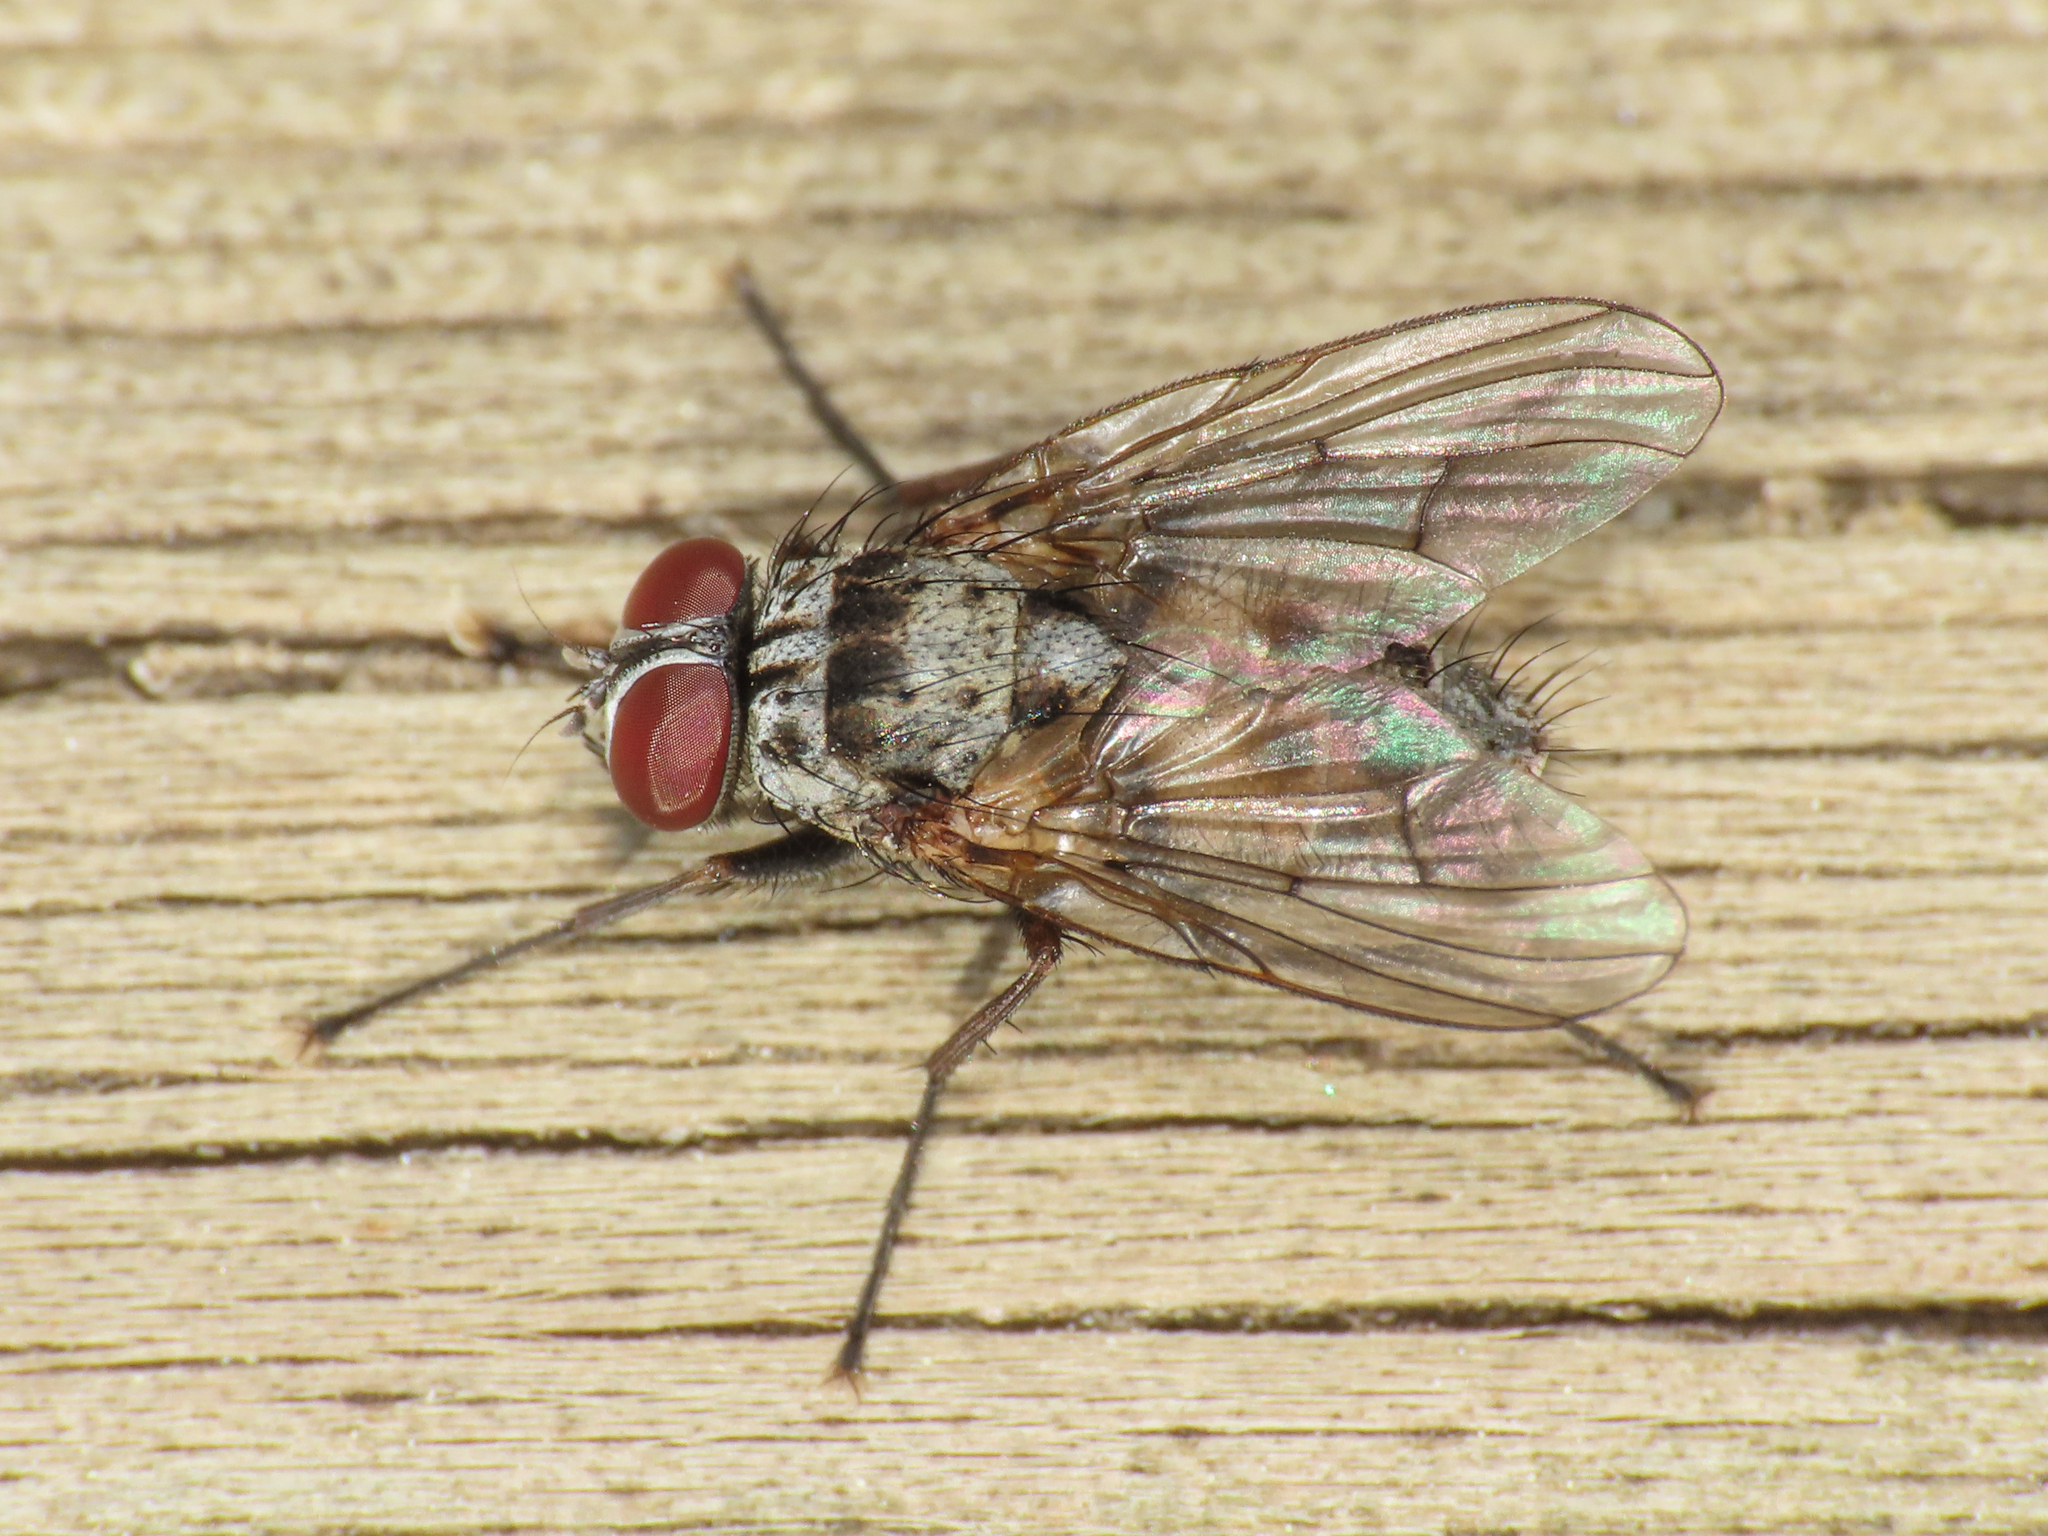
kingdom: Animalia
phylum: Arthropoda
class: Insecta
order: Diptera
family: Muscidae
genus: Helina
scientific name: Helina sexmaculata
